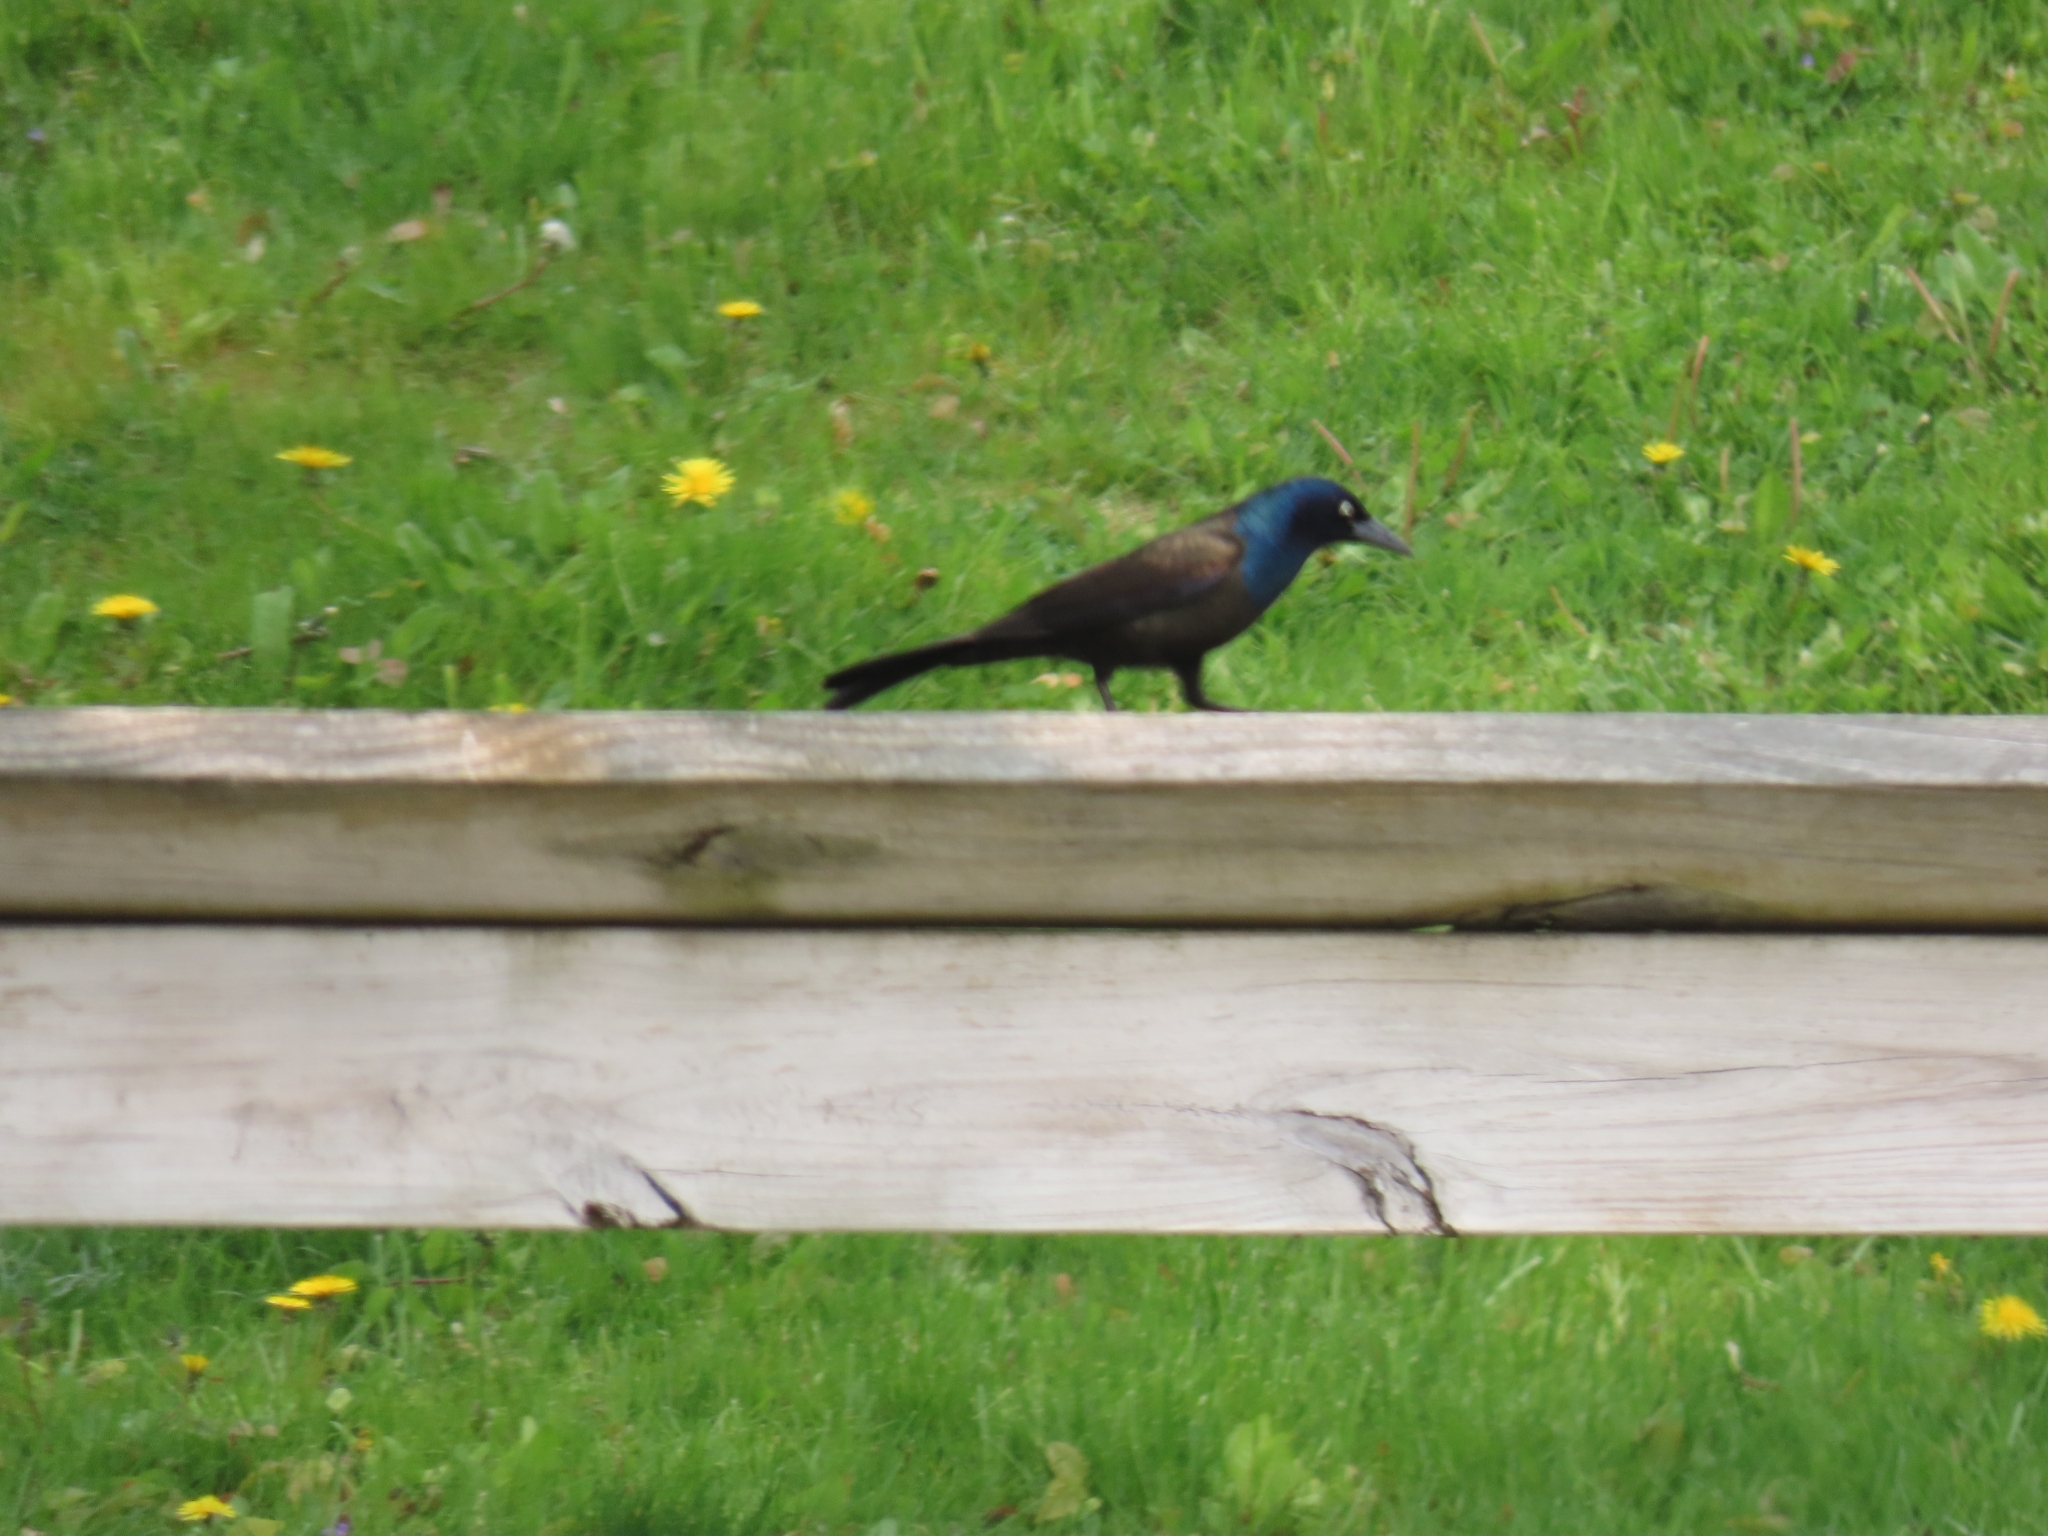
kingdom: Animalia
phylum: Chordata
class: Aves
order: Passeriformes
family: Icteridae
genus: Quiscalus
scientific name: Quiscalus quiscula
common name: Common grackle
